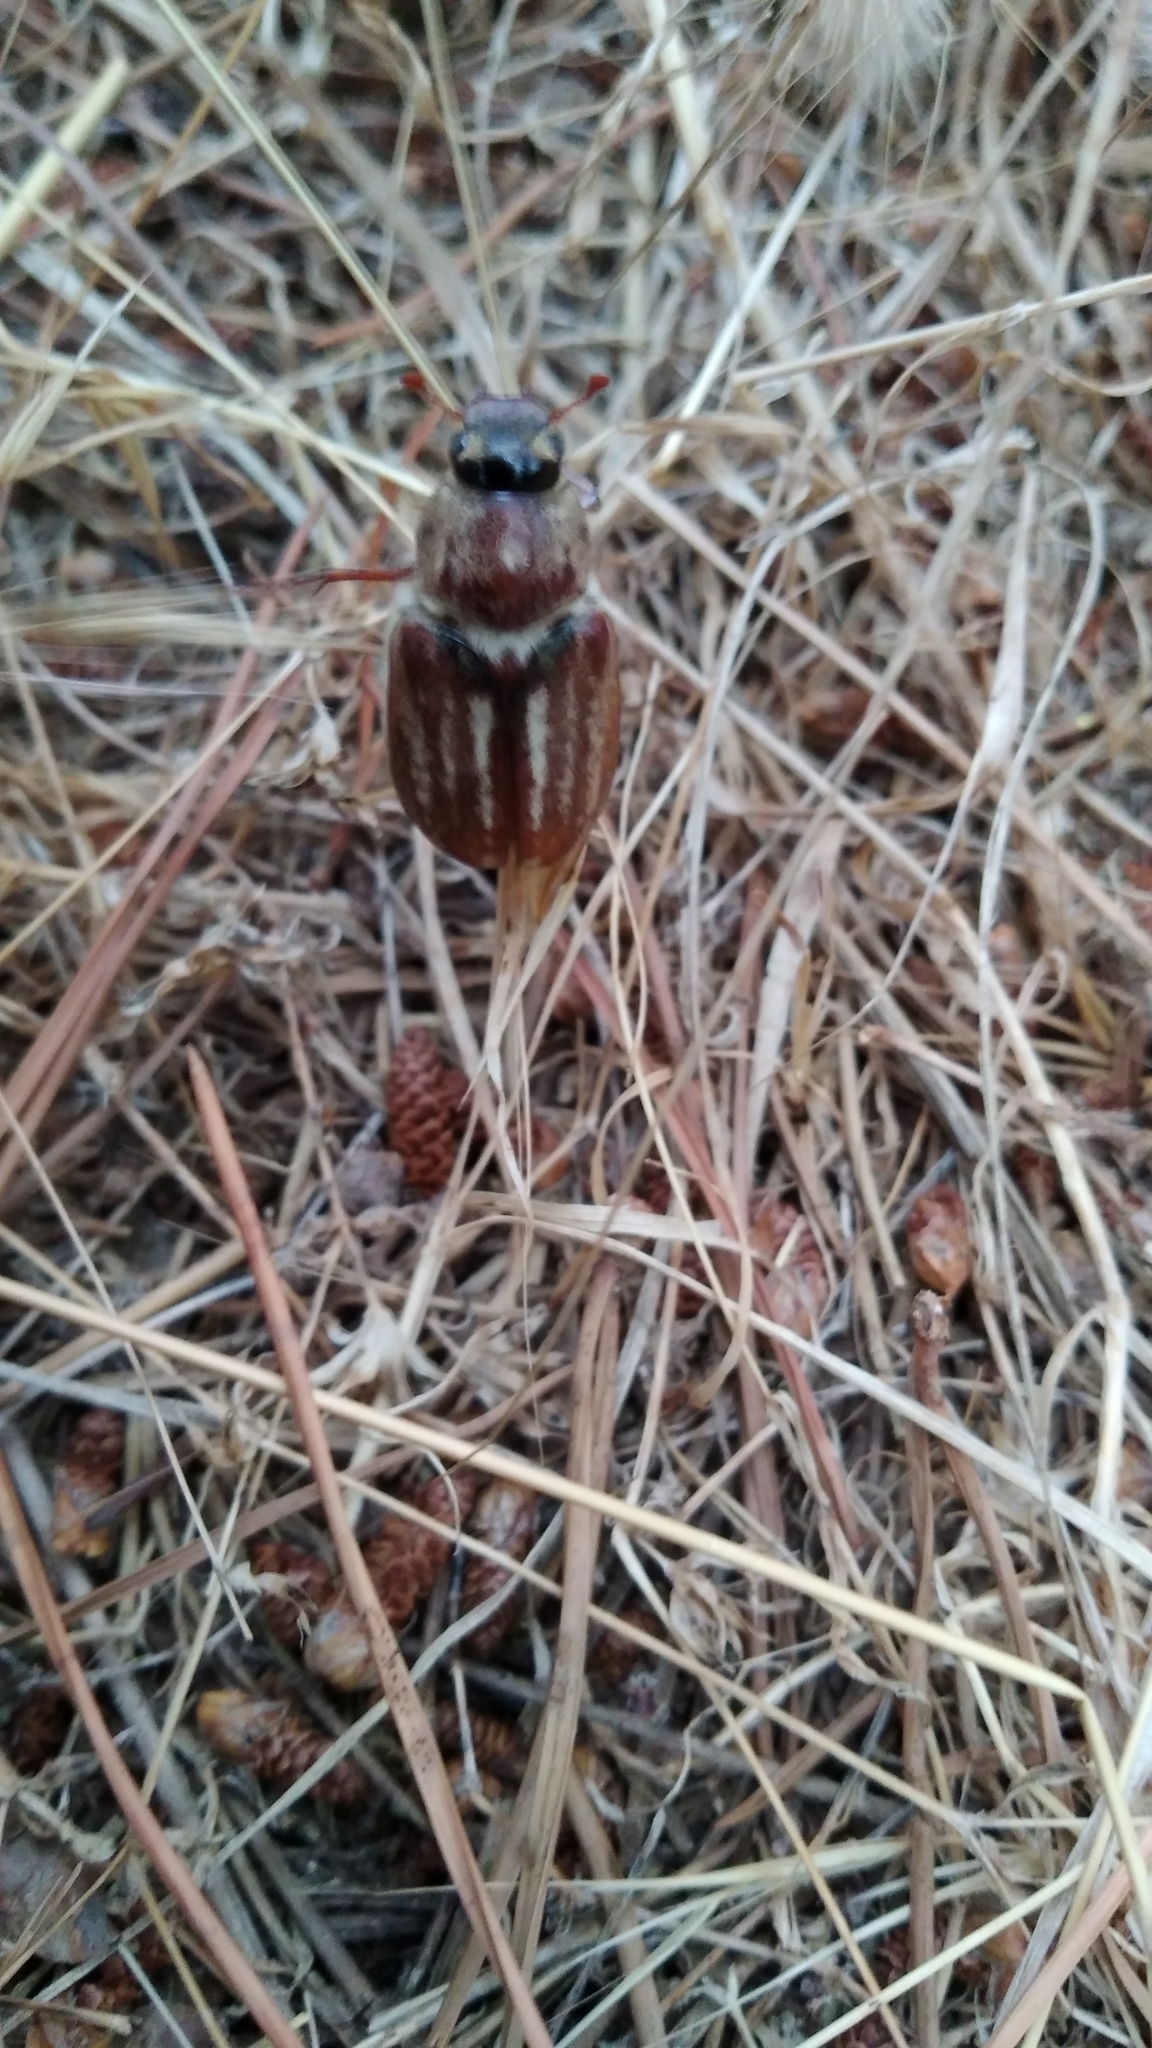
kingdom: Animalia
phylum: Arthropoda
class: Insecta
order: Coleoptera
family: Scarabaeidae
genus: Anoxia
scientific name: Anoxia australis
